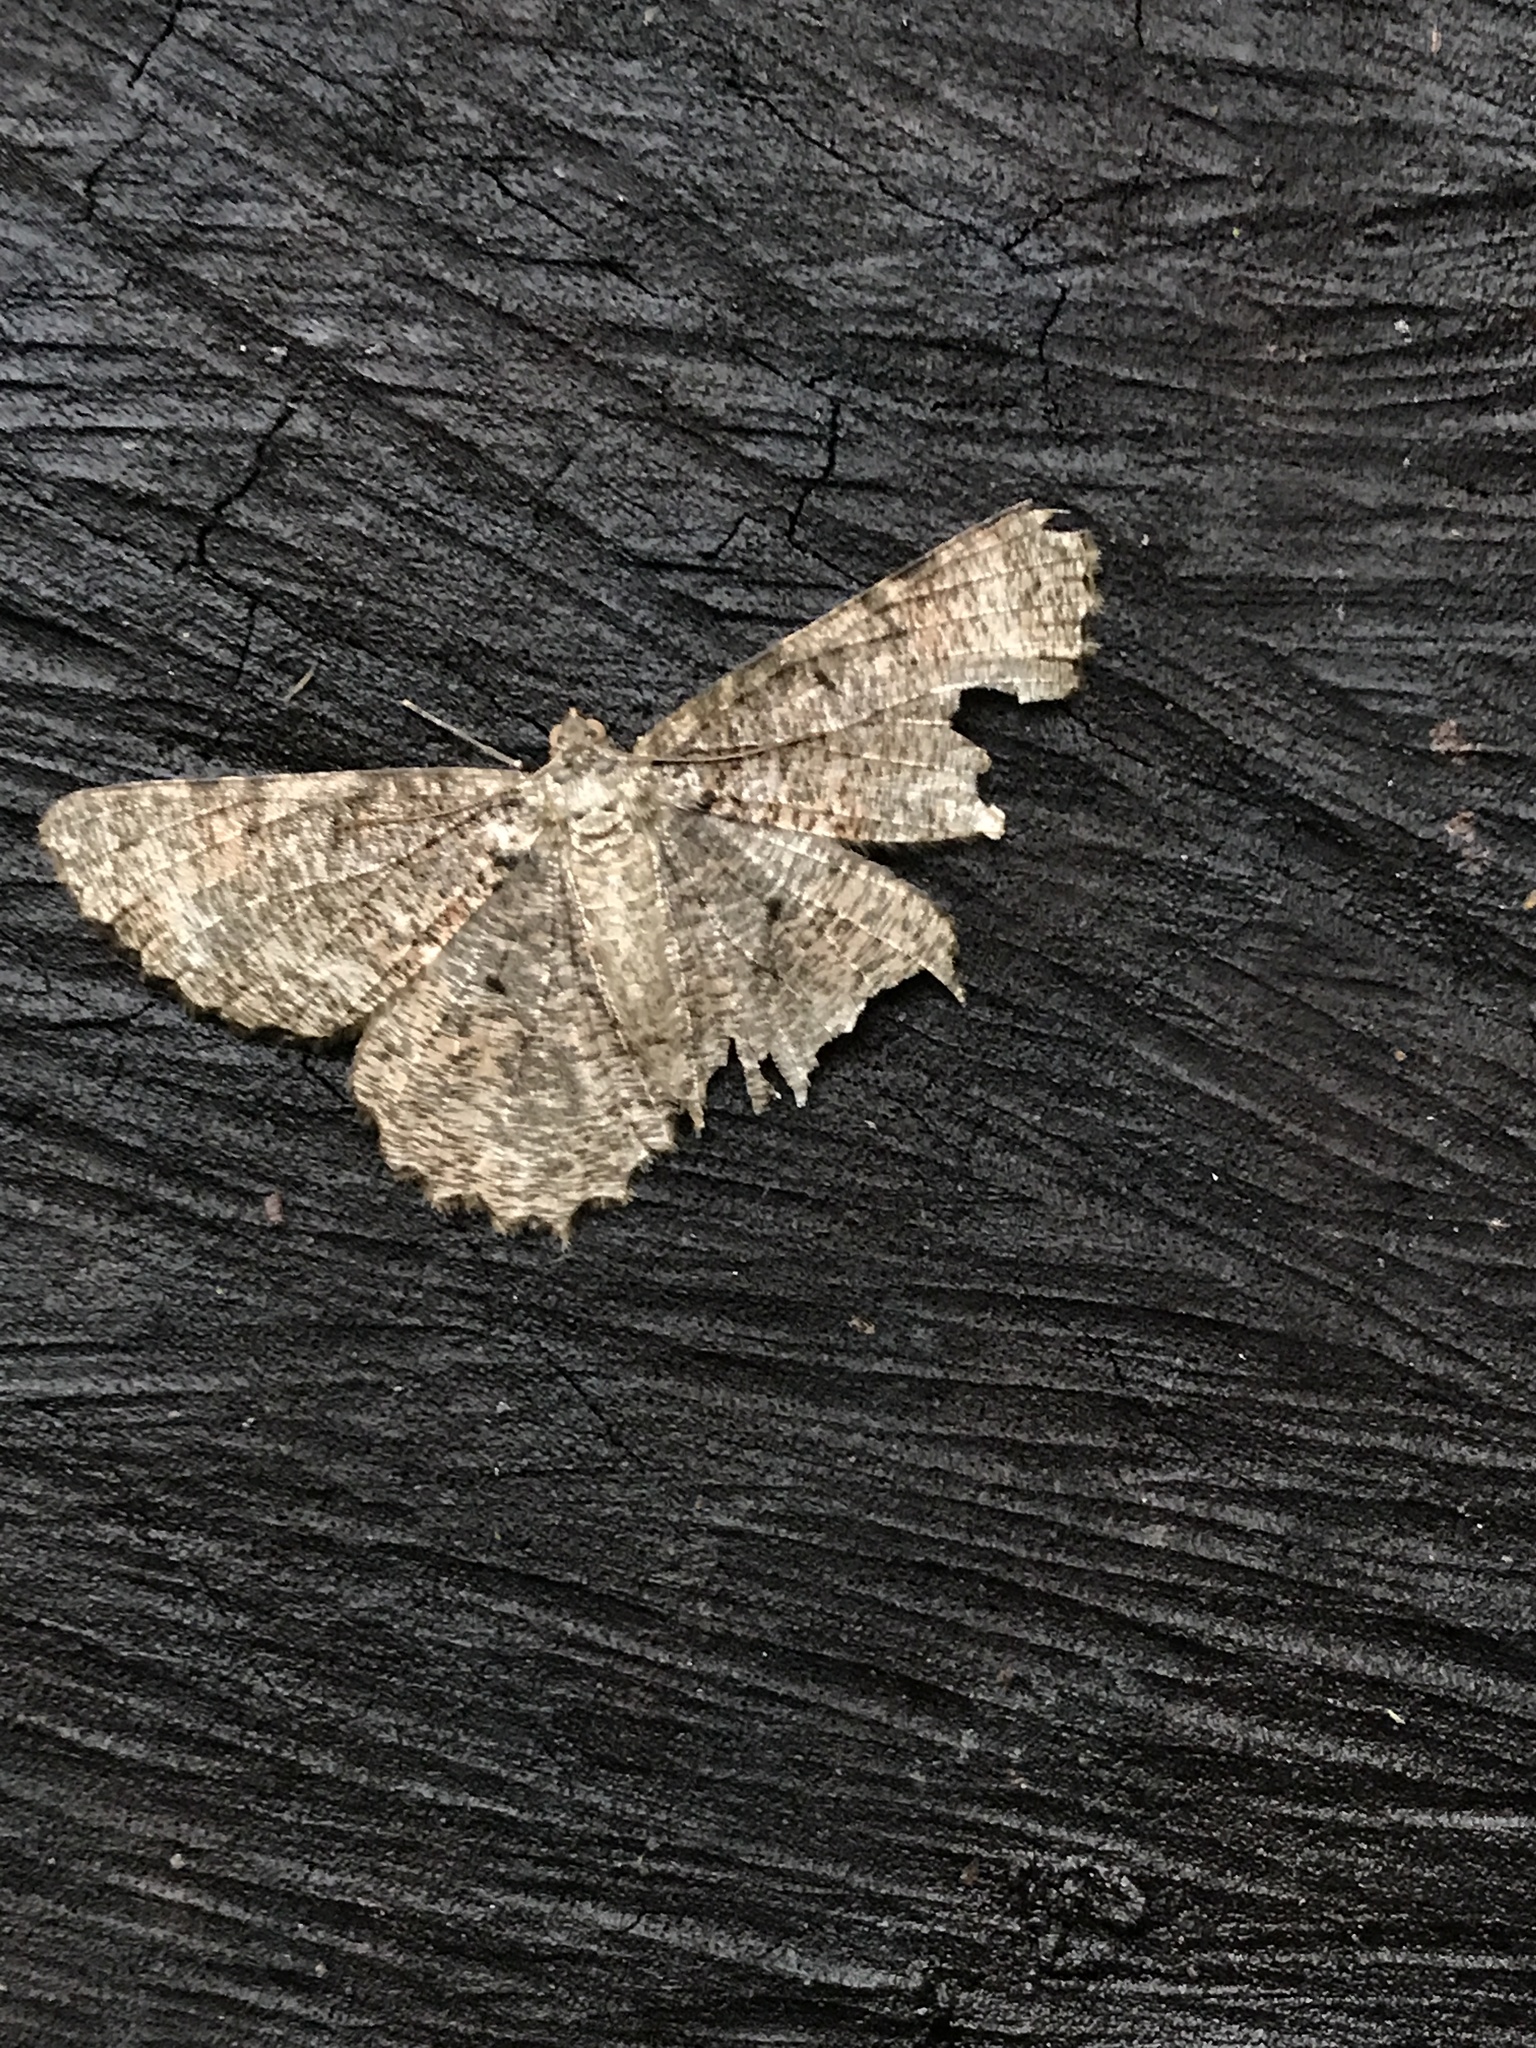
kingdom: Animalia
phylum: Arthropoda
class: Insecta
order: Lepidoptera
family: Geometridae
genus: Epimecis
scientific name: Epimecis hortaria
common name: Tulip-tree beauty
